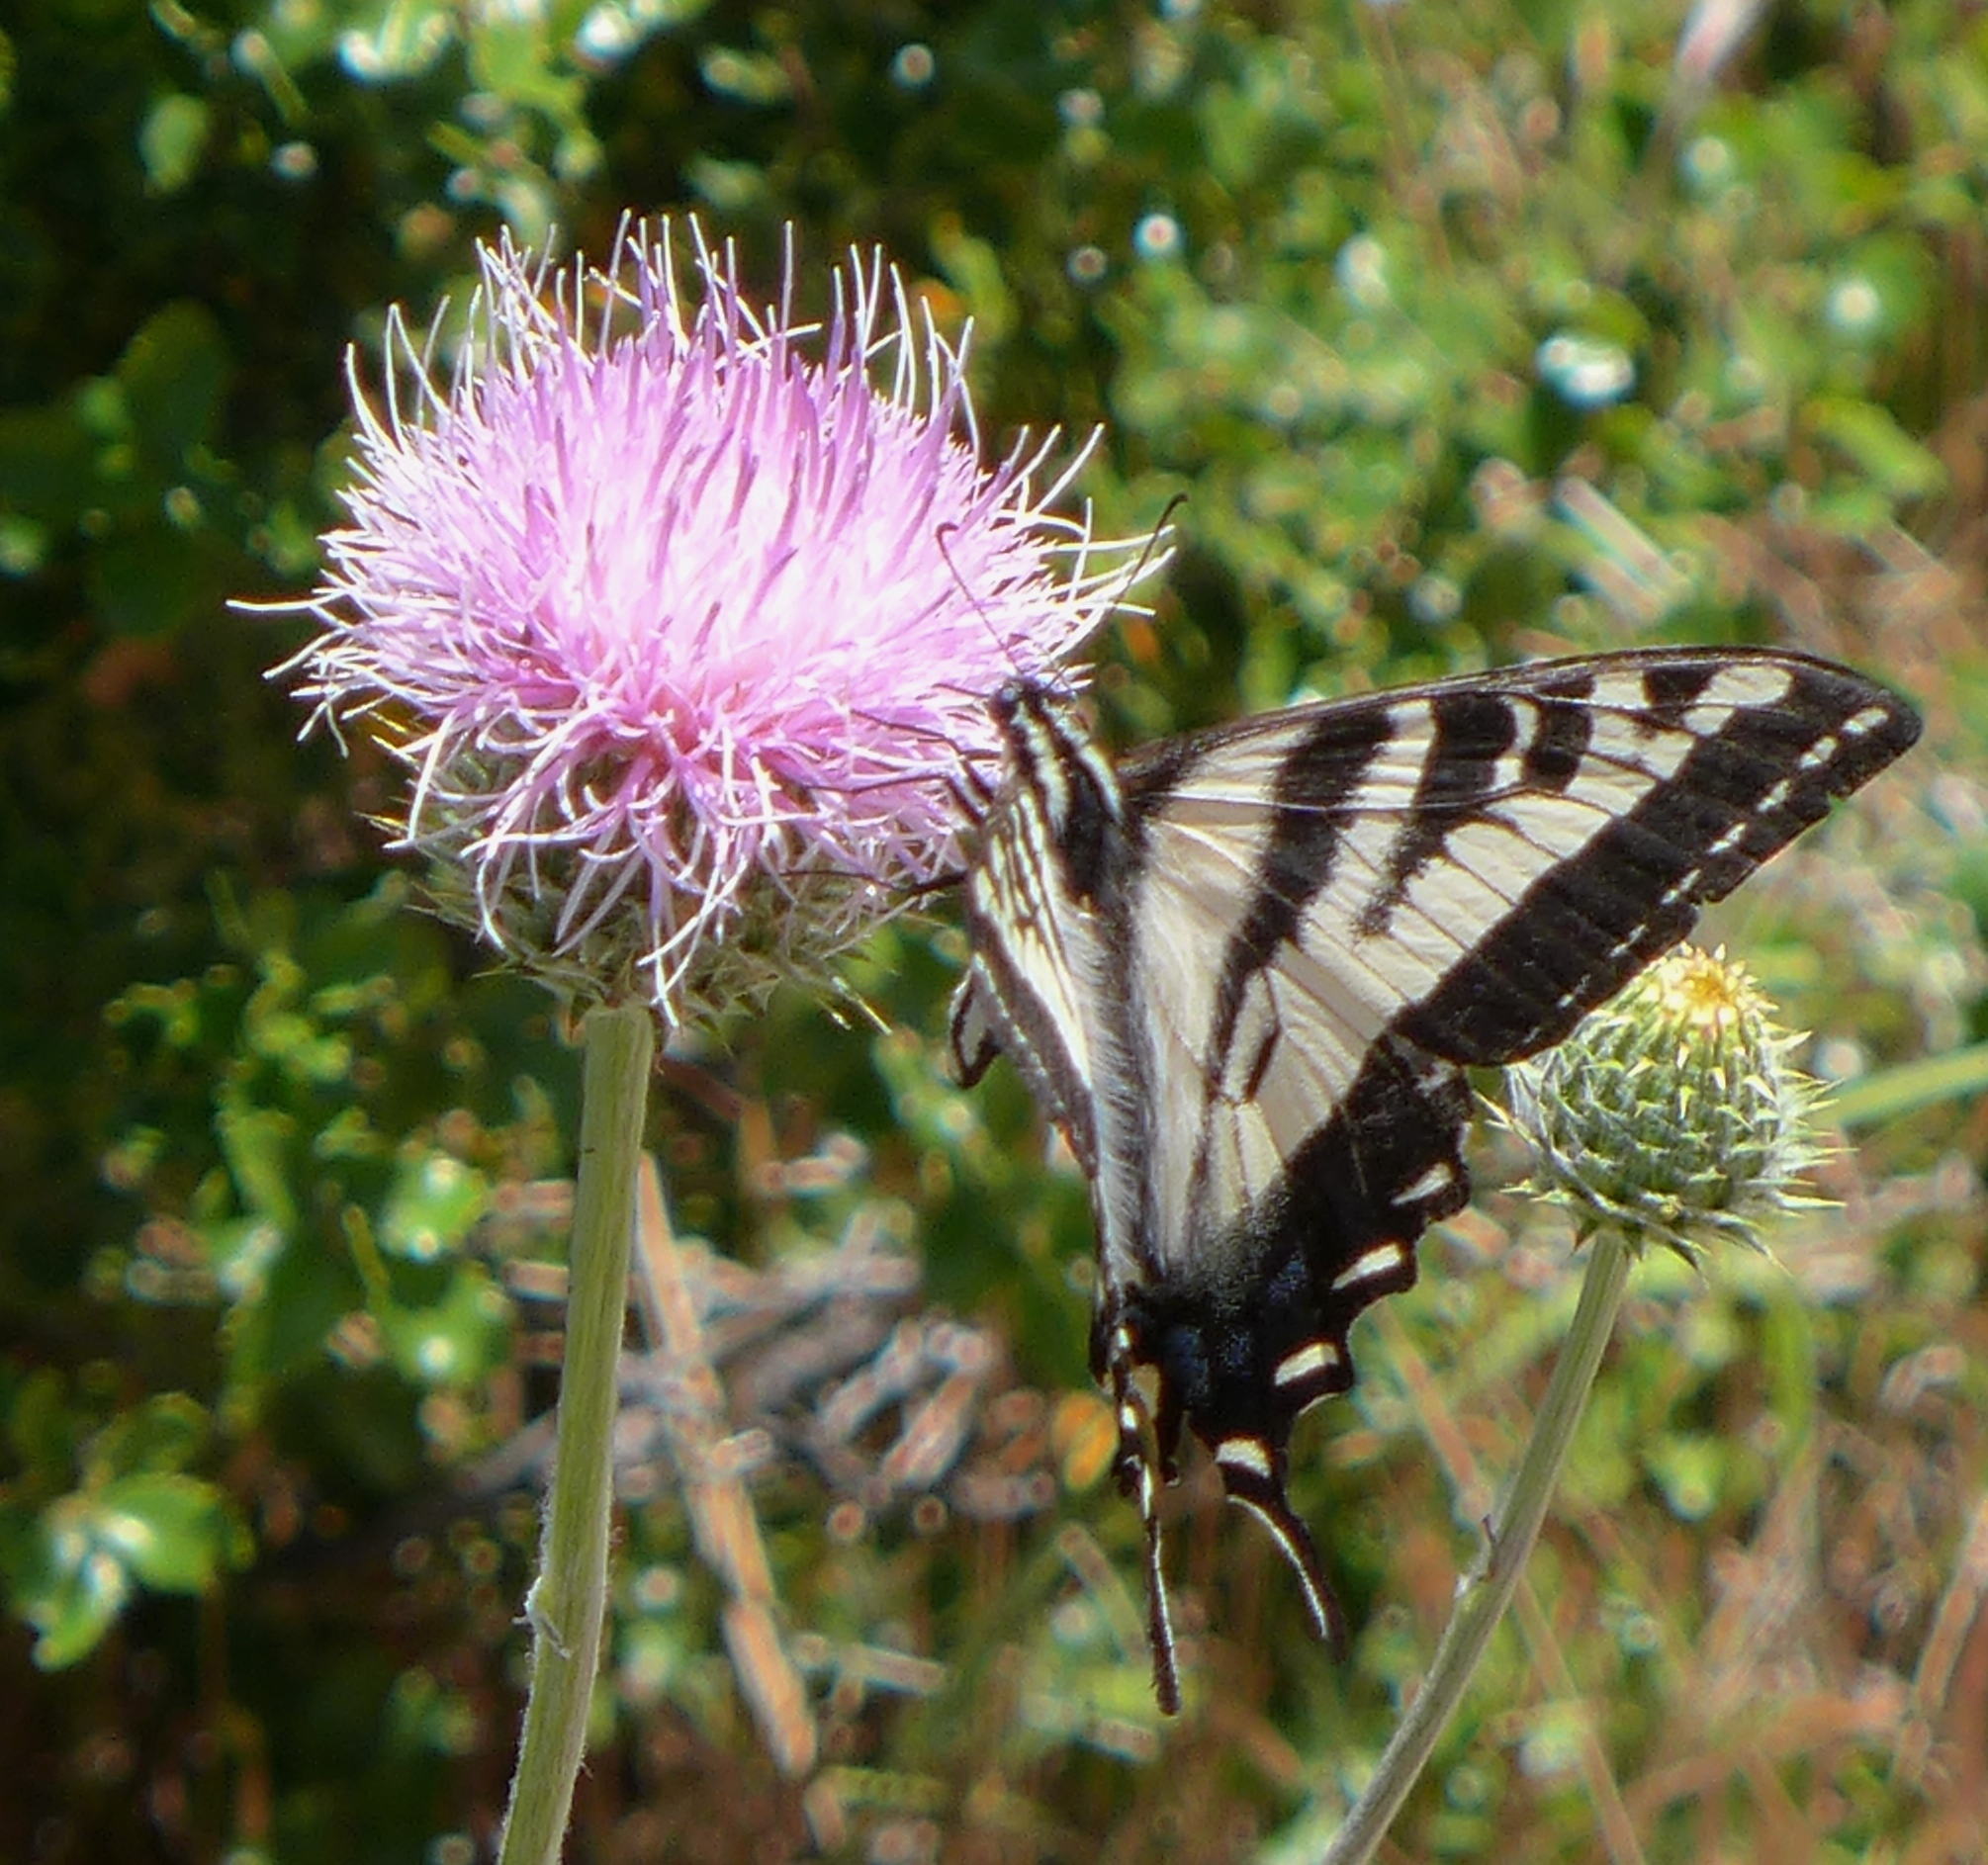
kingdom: Animalia
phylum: Arthropoda
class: Insecta
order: Lepidoptera
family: Papilionidae
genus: Papilio
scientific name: Papilio eurymedon
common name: Pale tiger swallowtail
